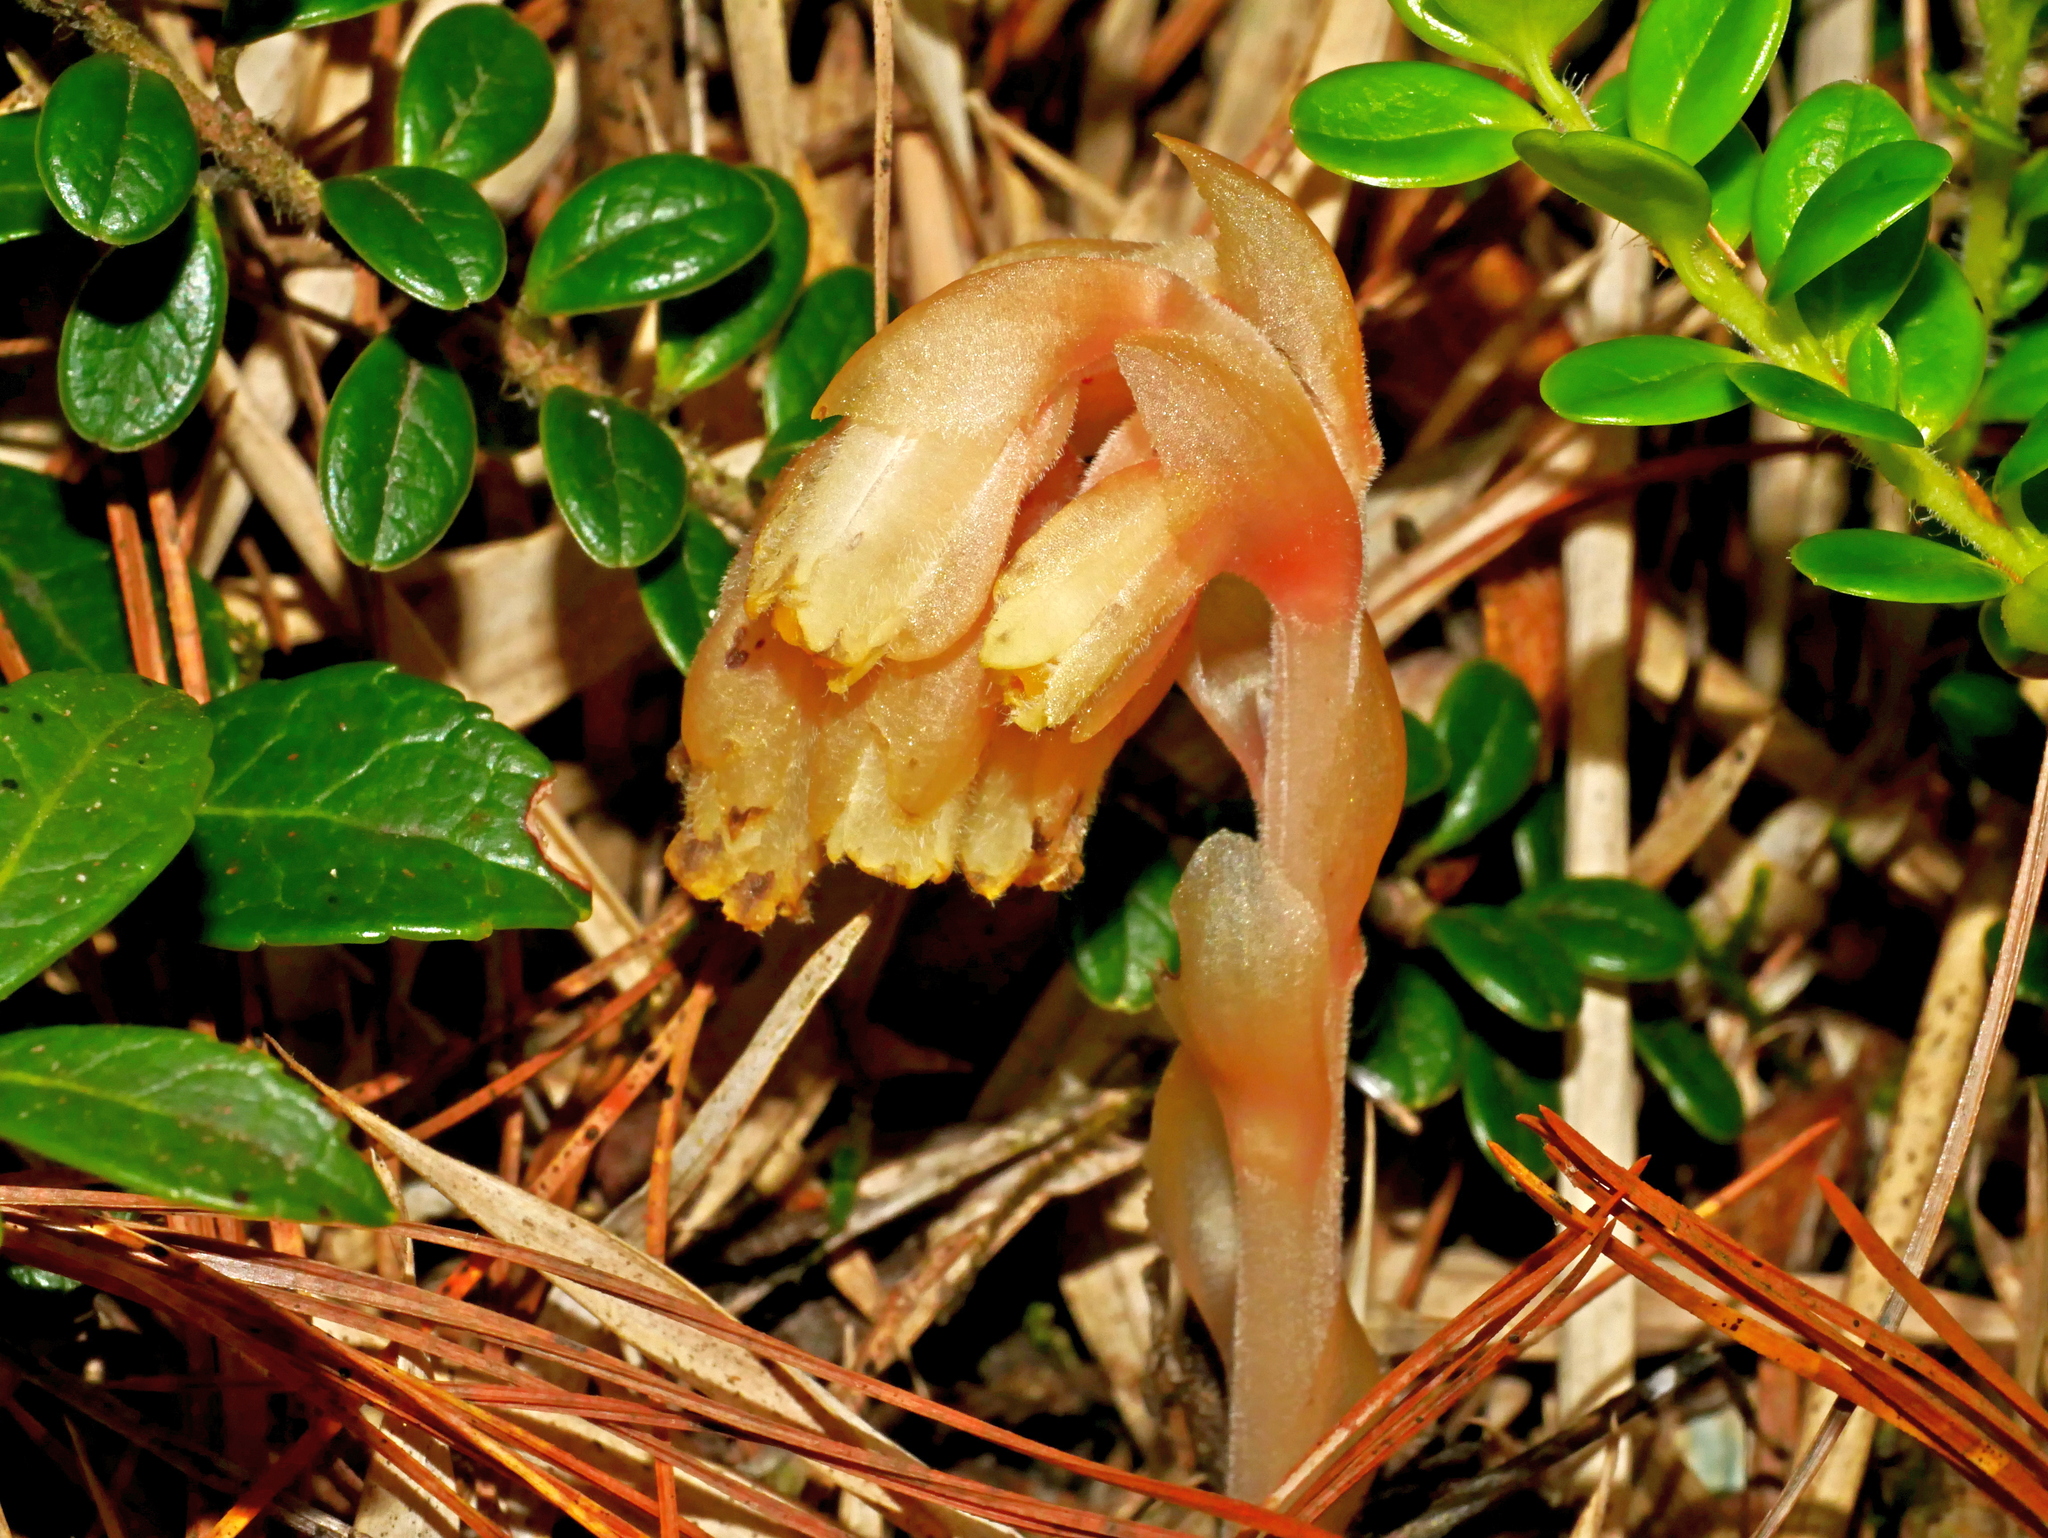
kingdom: Plantae
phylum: Tracheophyta
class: Magnoliopsida
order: Ericales
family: Ericaceae
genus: Hypopitys
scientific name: Hypopitys monotropa
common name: Yellow bird's-nest
